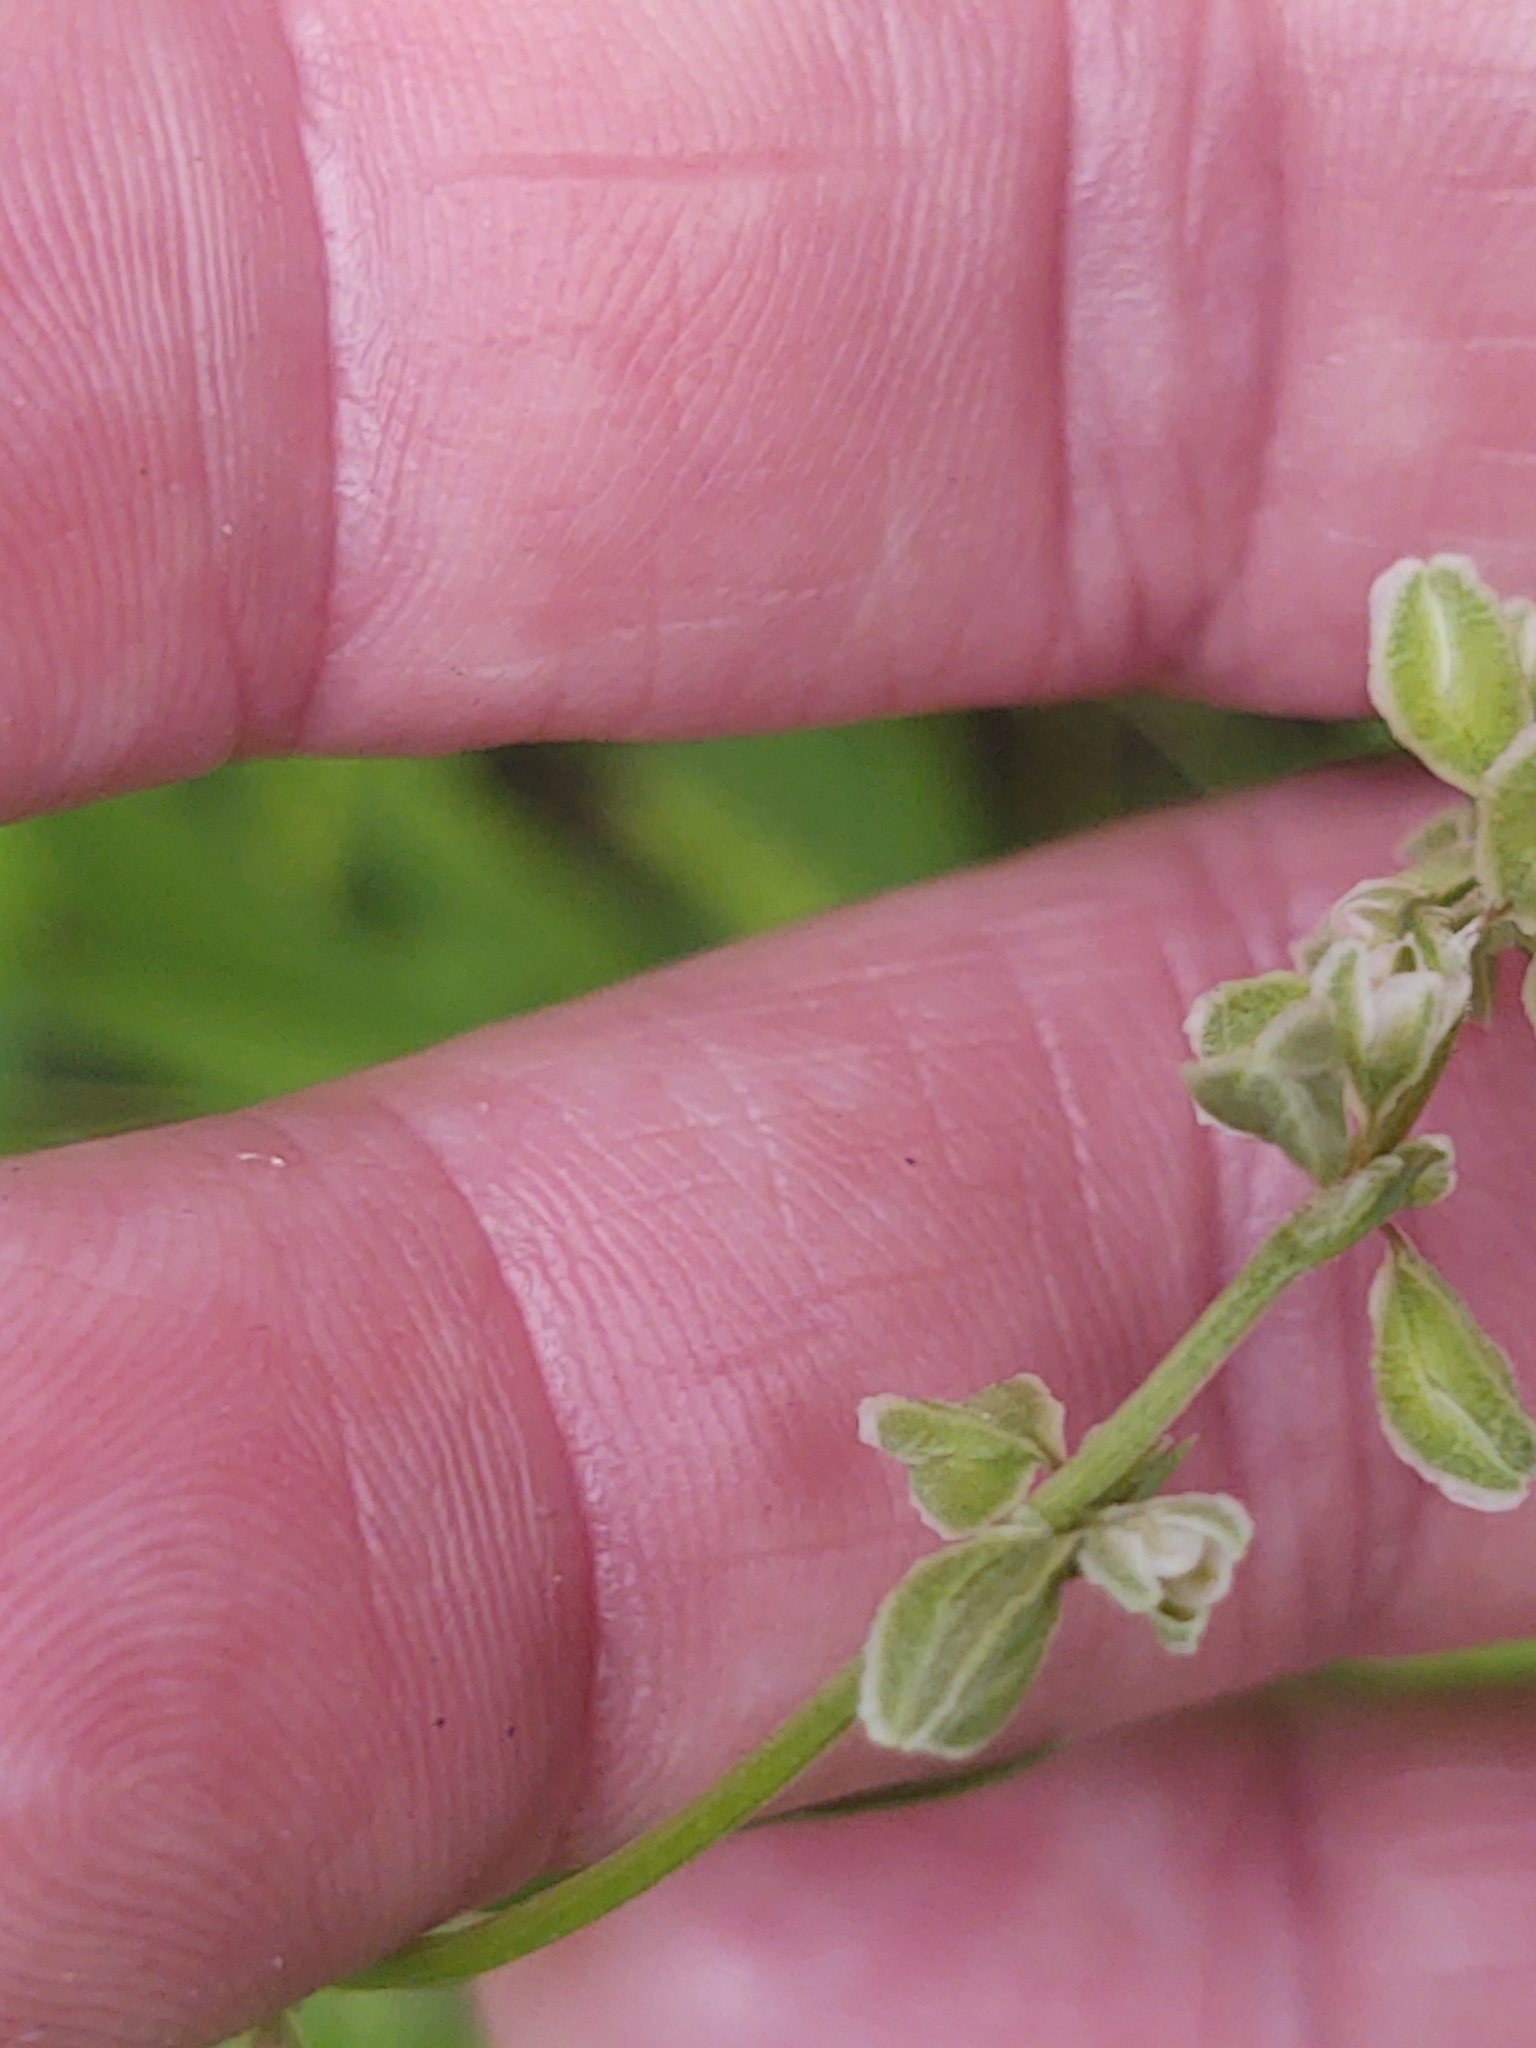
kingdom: Plantae
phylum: Tracheophyta
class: Magnoliopsida
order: Caryophyllales
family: Polygonaceae
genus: Fallopia
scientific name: Fallopia scandens
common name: Climbing false buckwheat
